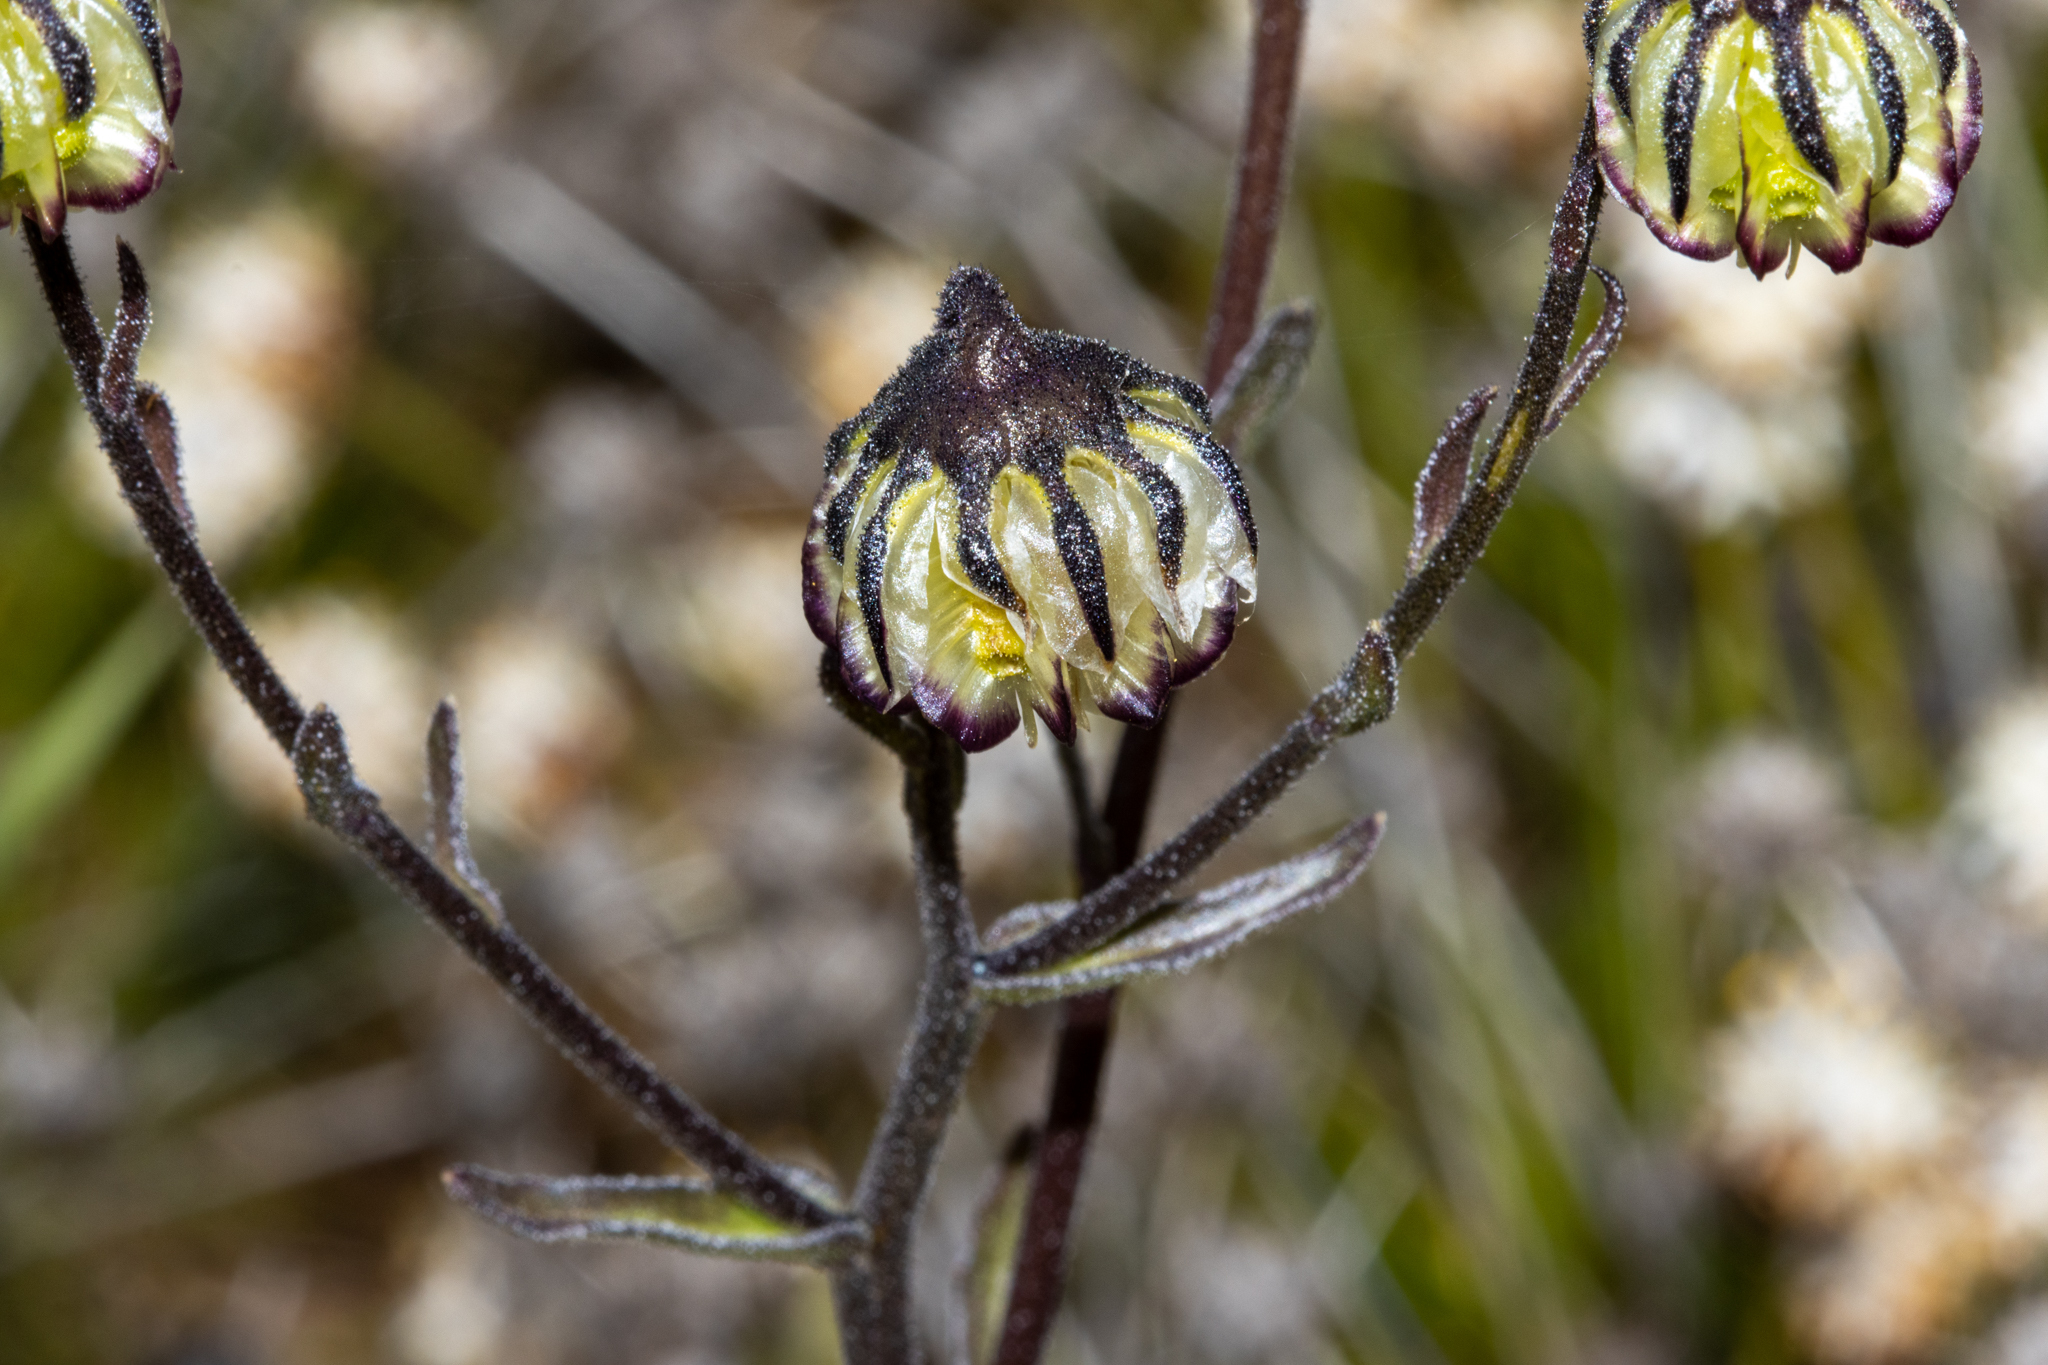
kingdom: Plantae
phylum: Tracheophyta
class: Magnoliopsida
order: Asterales
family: Asteraceae
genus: Osteospermum
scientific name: Osteospermum monstrosum
